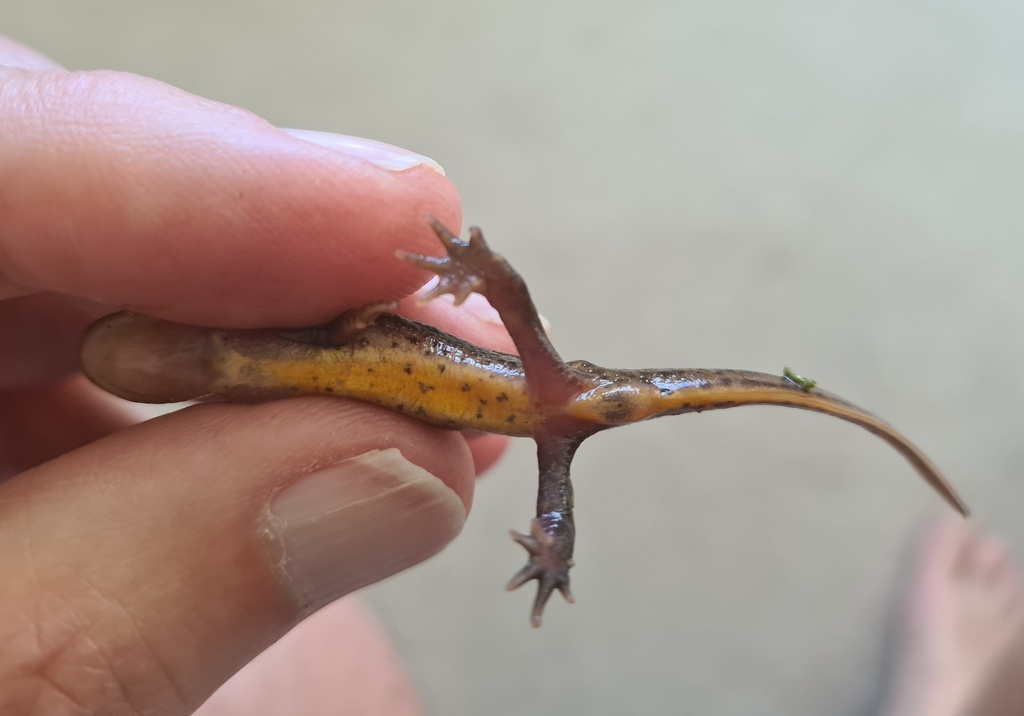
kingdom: Animalia
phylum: Chordata
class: Amphibia
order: Caudata
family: Salamandridae
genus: Lissotriton
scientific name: Lissotriton helveticus
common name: Palmate newt
